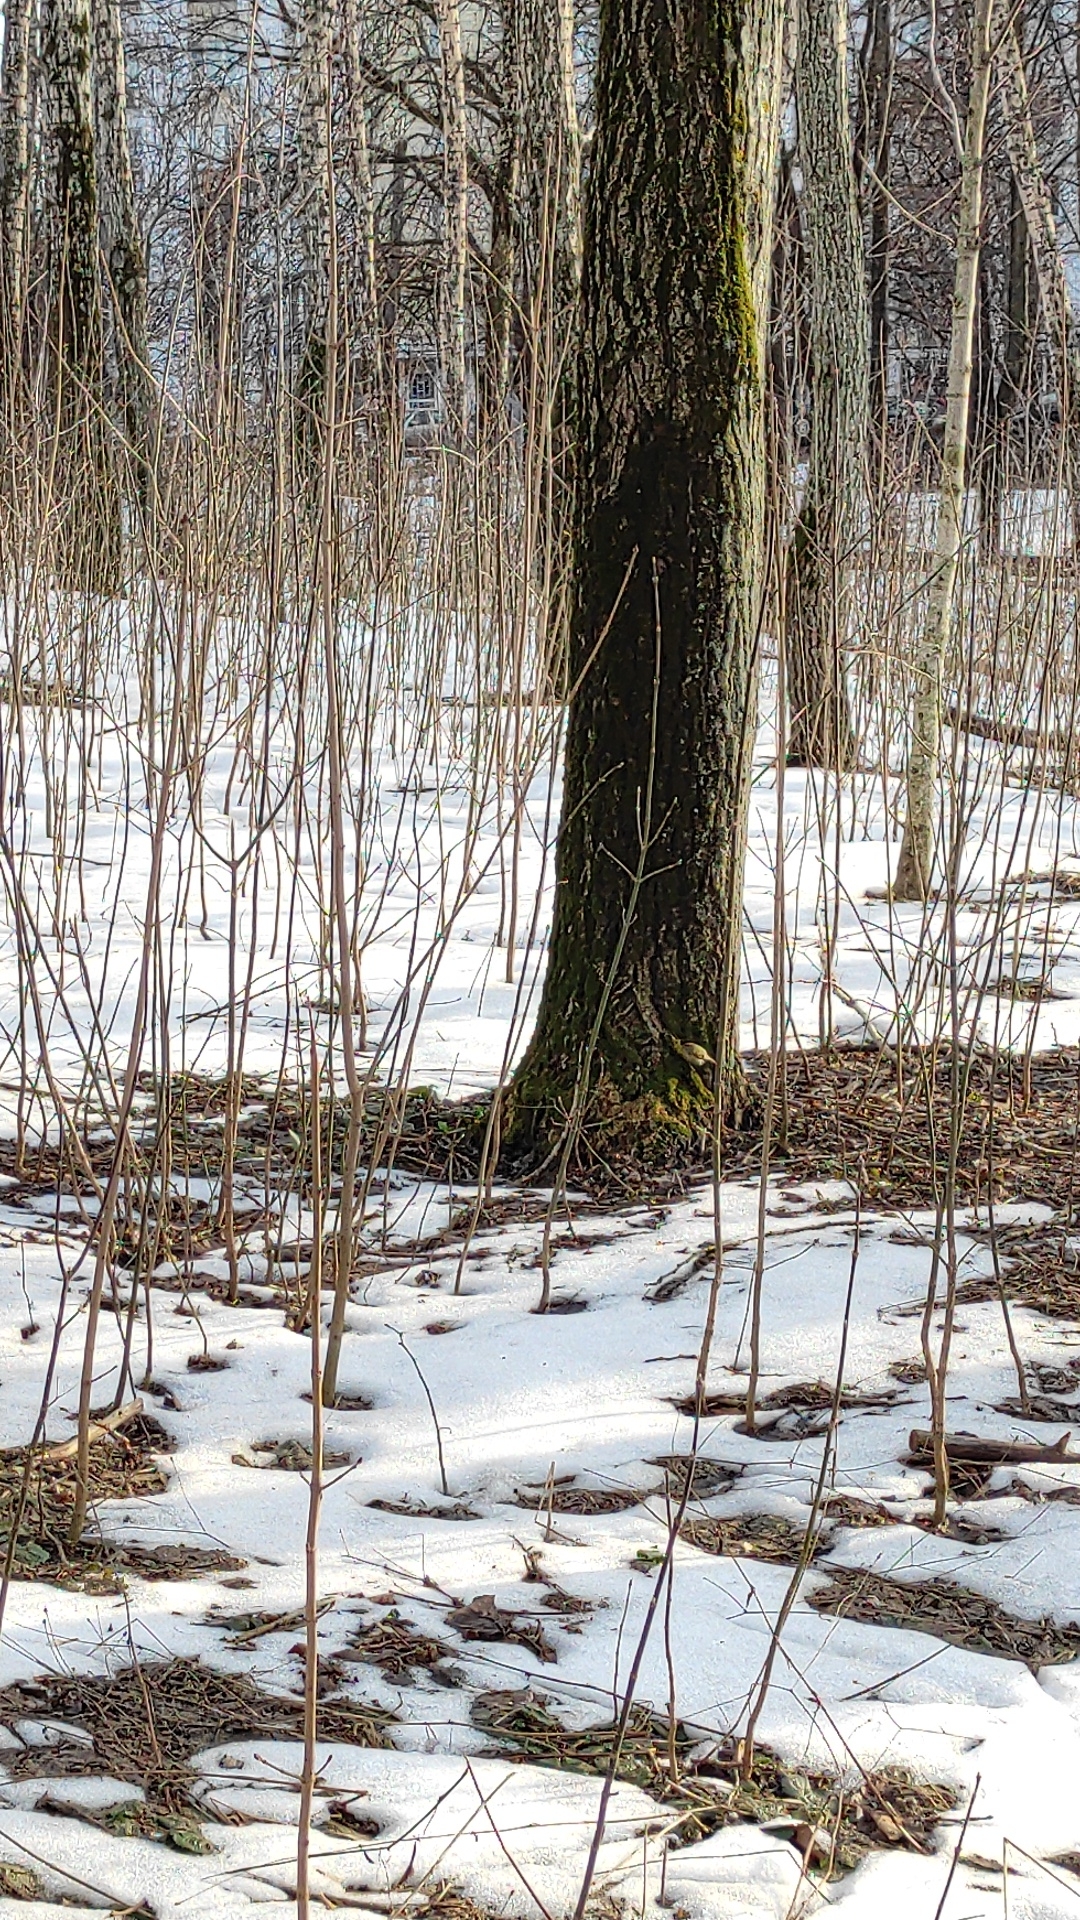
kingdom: Animalia
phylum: Chordata
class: Aves
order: Passeriformes
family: Regulidae
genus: Regulus
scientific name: Regulus regulus
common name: Goldcrest
